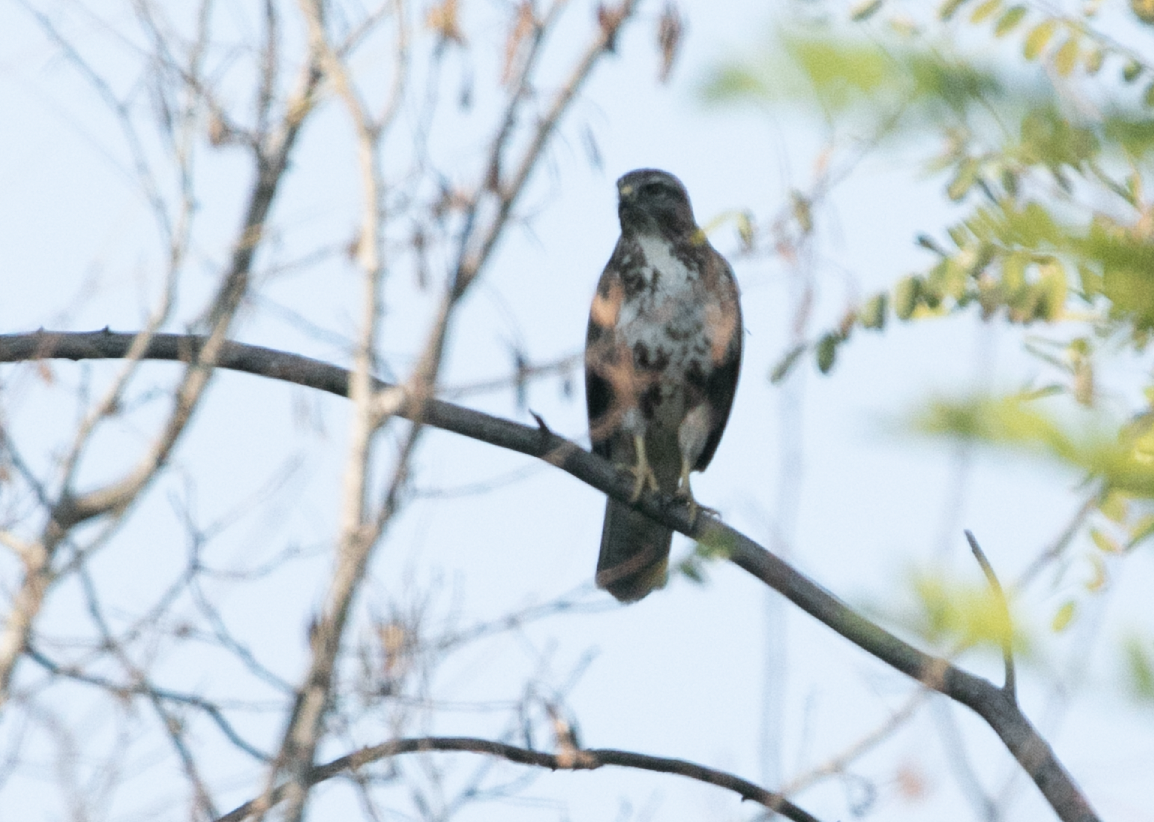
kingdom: Animalia
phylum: Chordata
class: Aves
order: Accipitriformes
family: Accipitridae
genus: Buteo
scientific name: Buteo buteo
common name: Common buzzard
